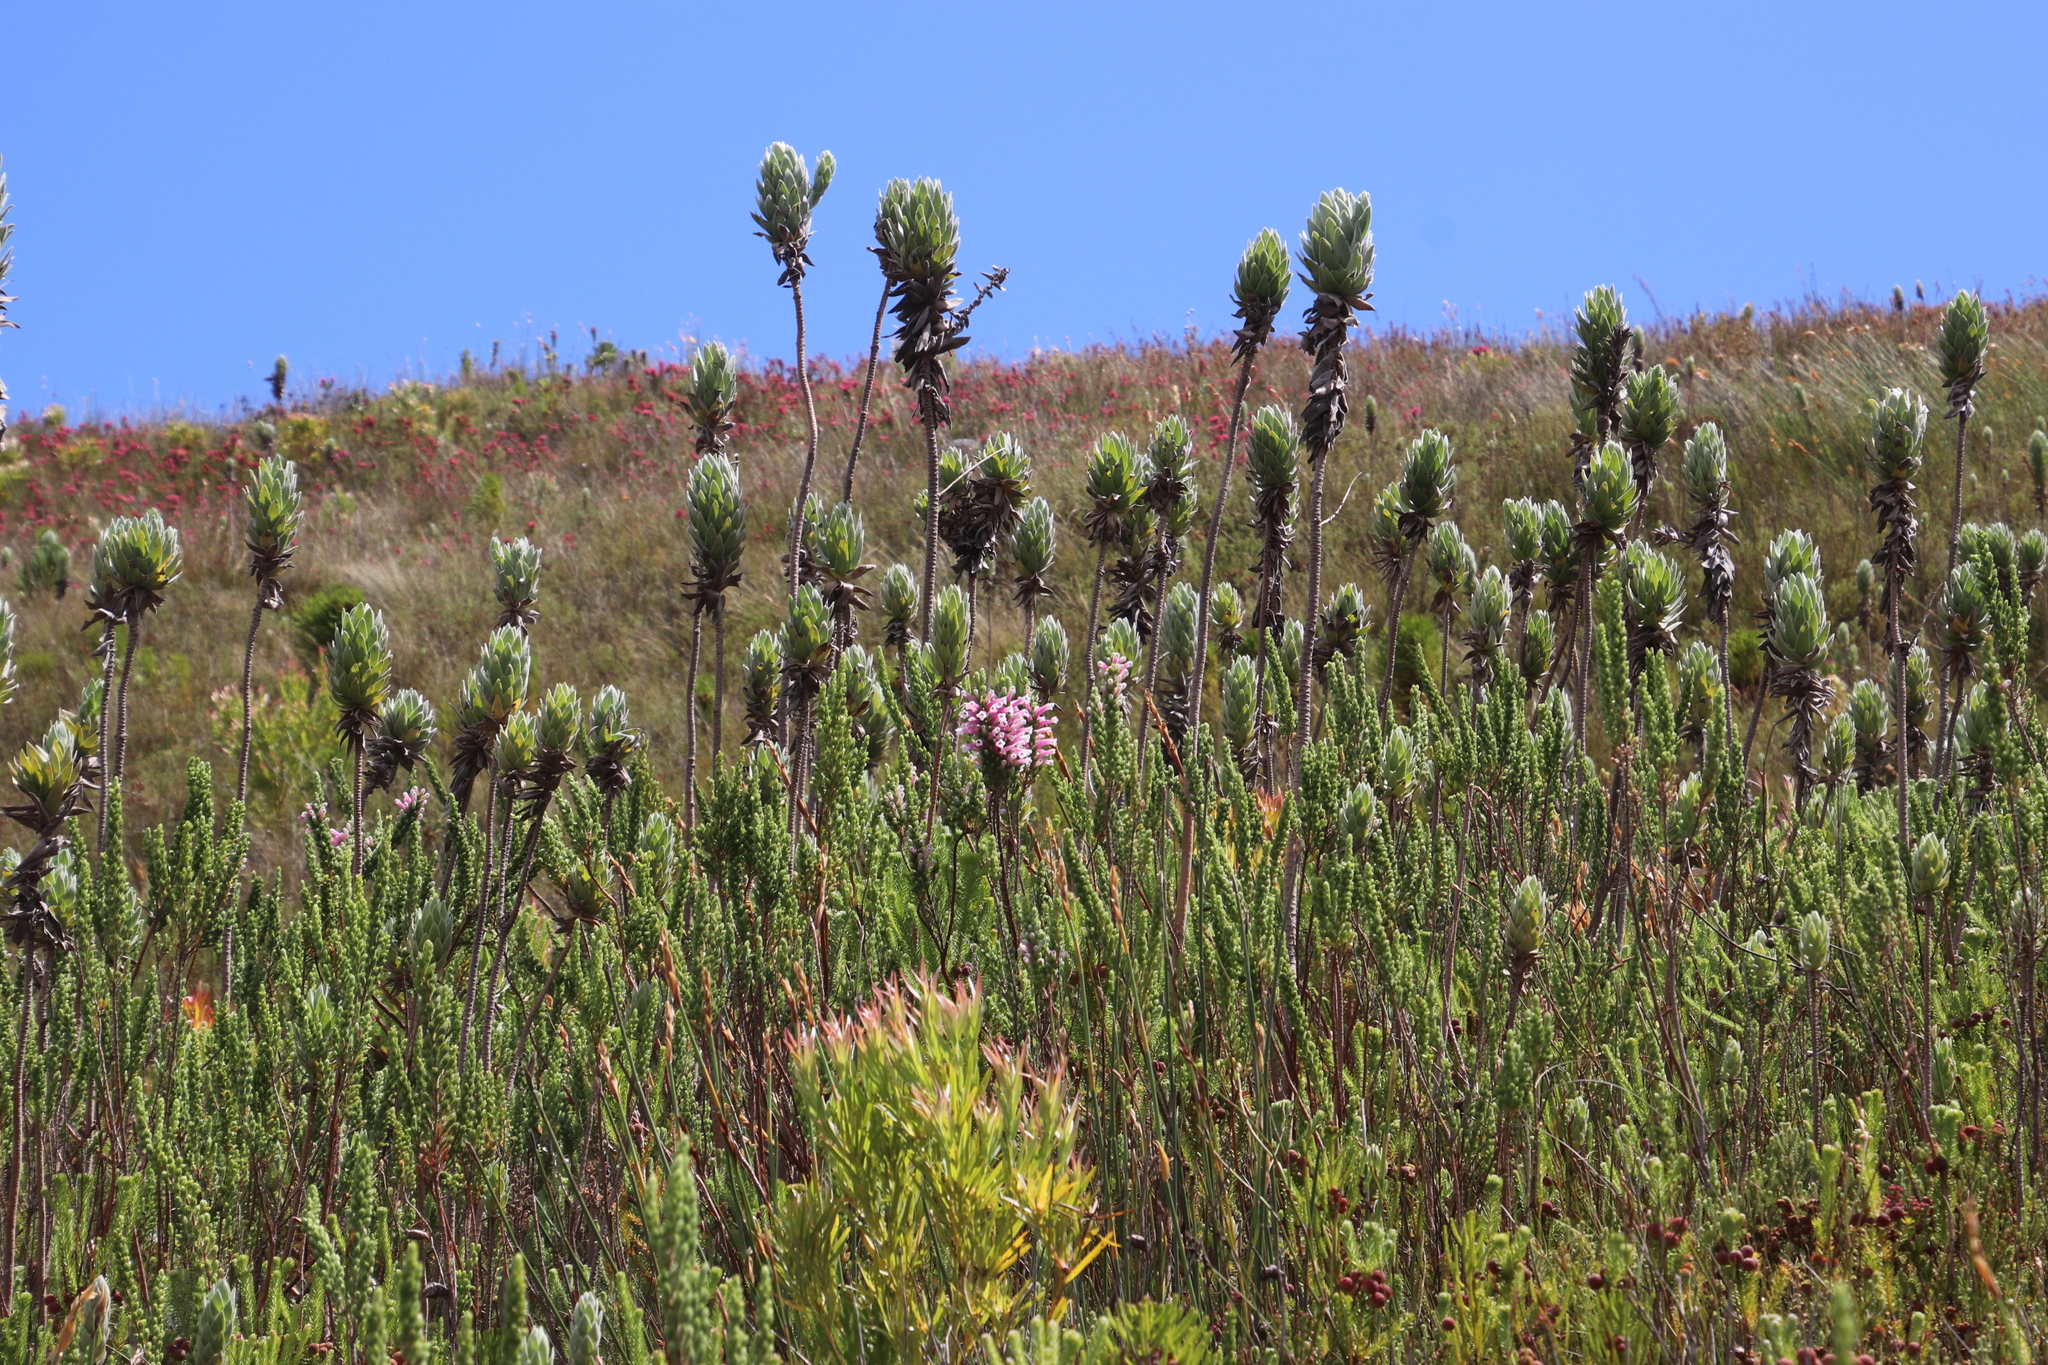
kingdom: Plantae
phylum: Tracheophyta
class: Magnoliopsida
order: Ericales
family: Ericaceae
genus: Erica
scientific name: Erica macowanii
